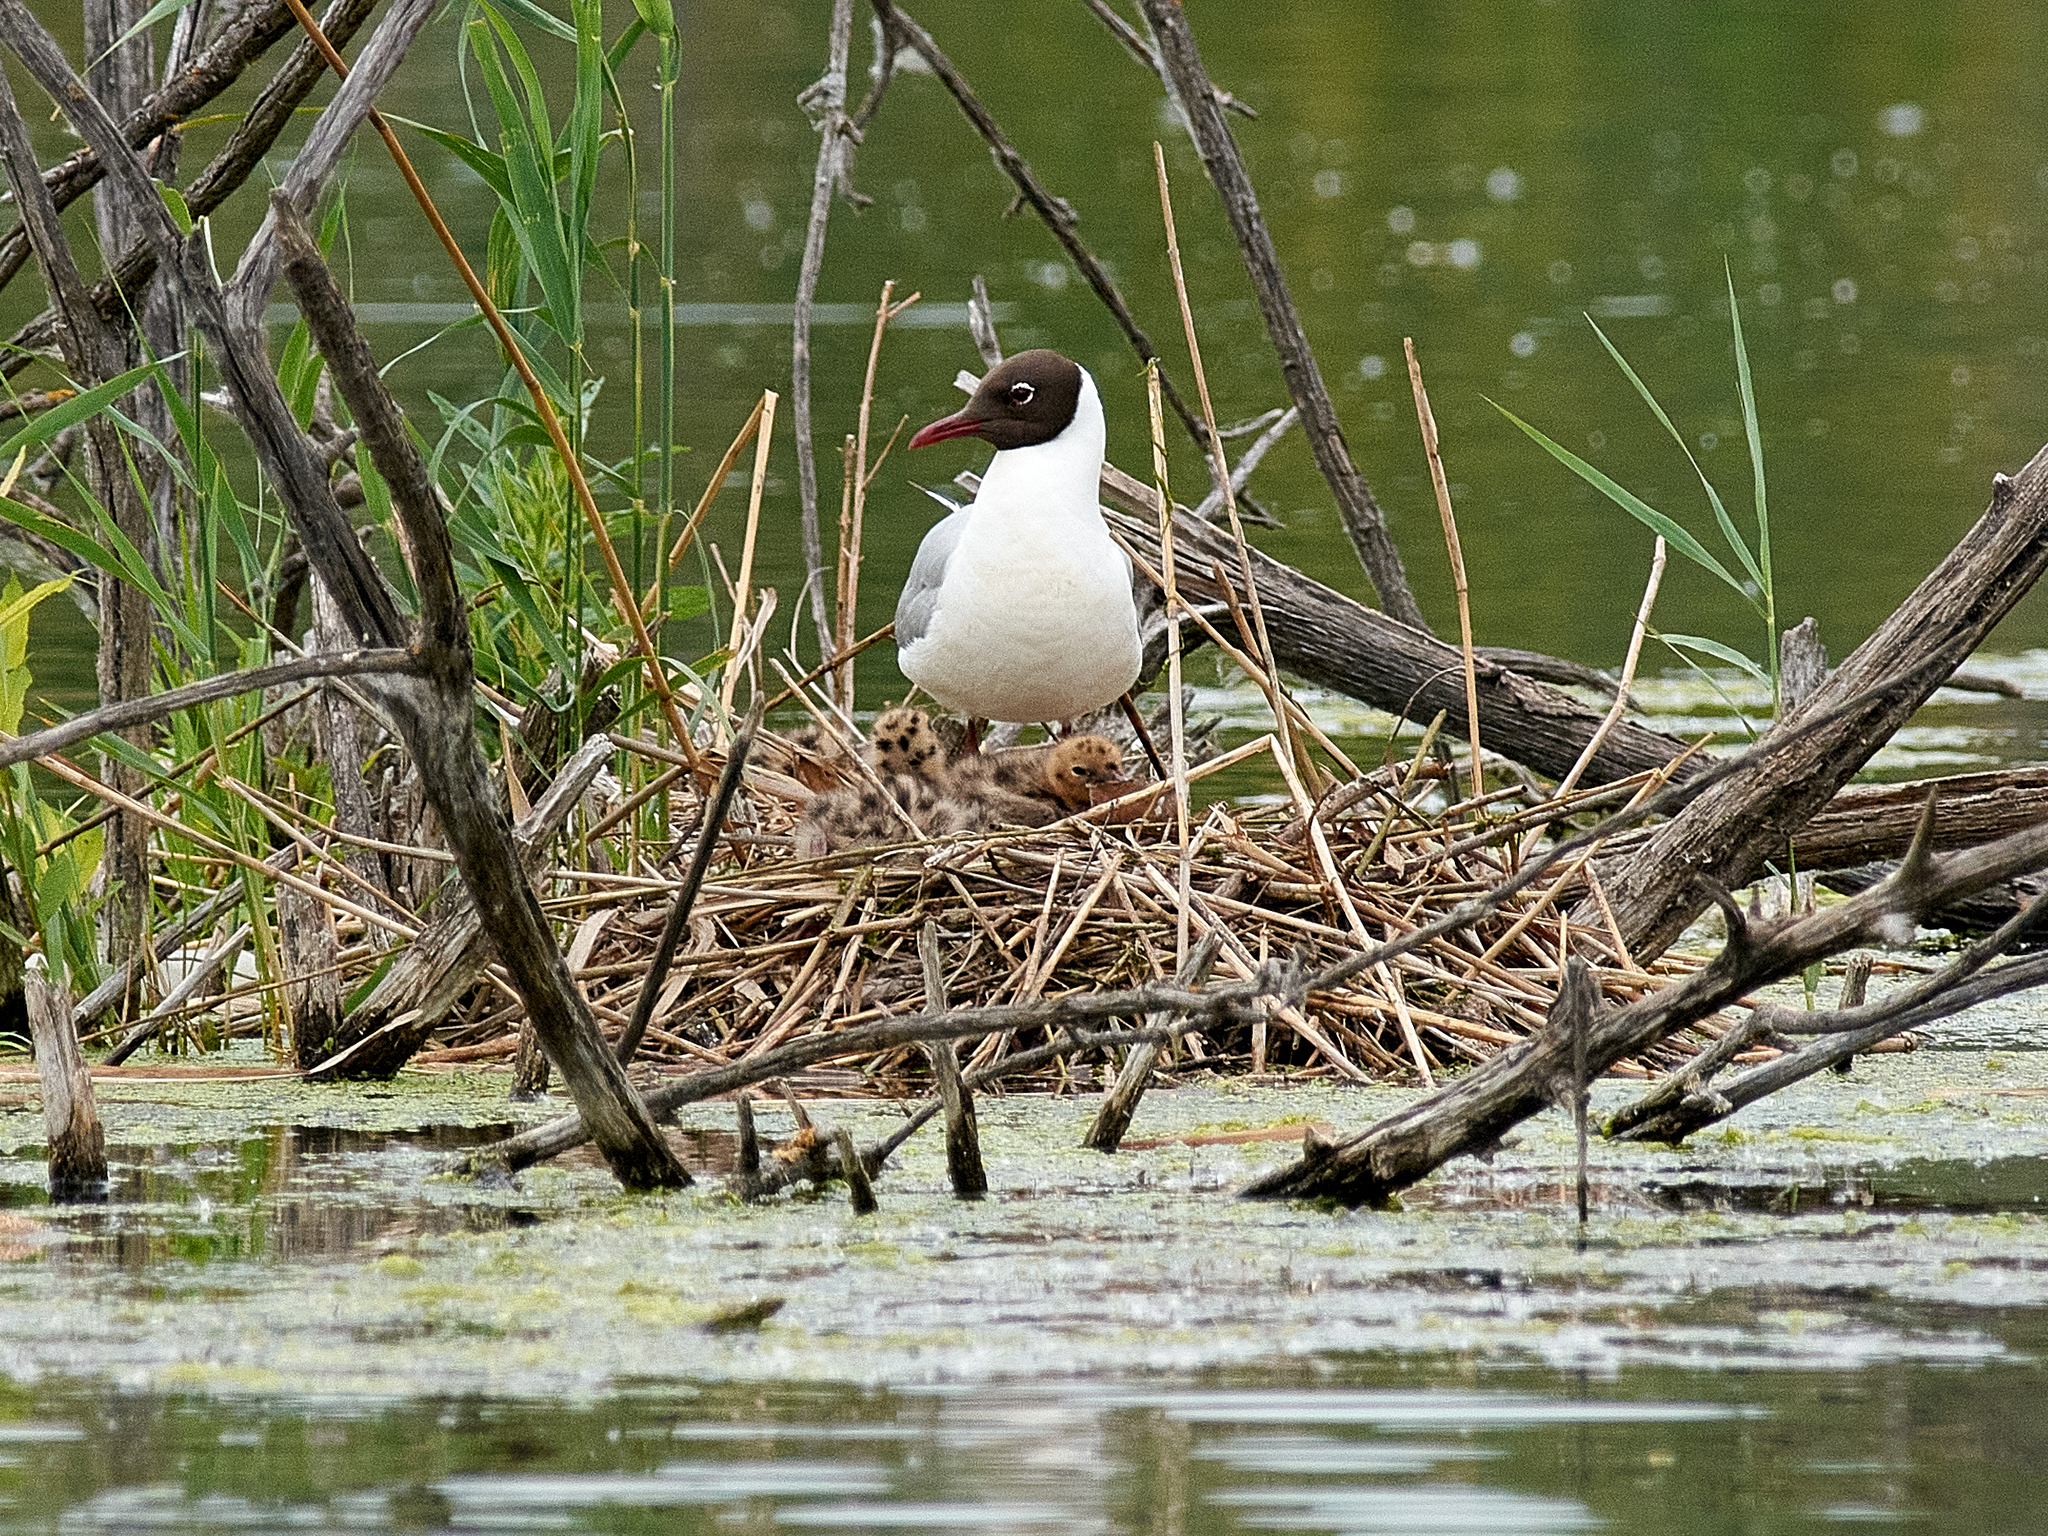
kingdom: Animalia
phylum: Chordata
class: Aves
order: Charadriiformes
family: Laridae
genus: Chroicocephalus
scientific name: Chroicocephalus ridibundus
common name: Black-headed gull
